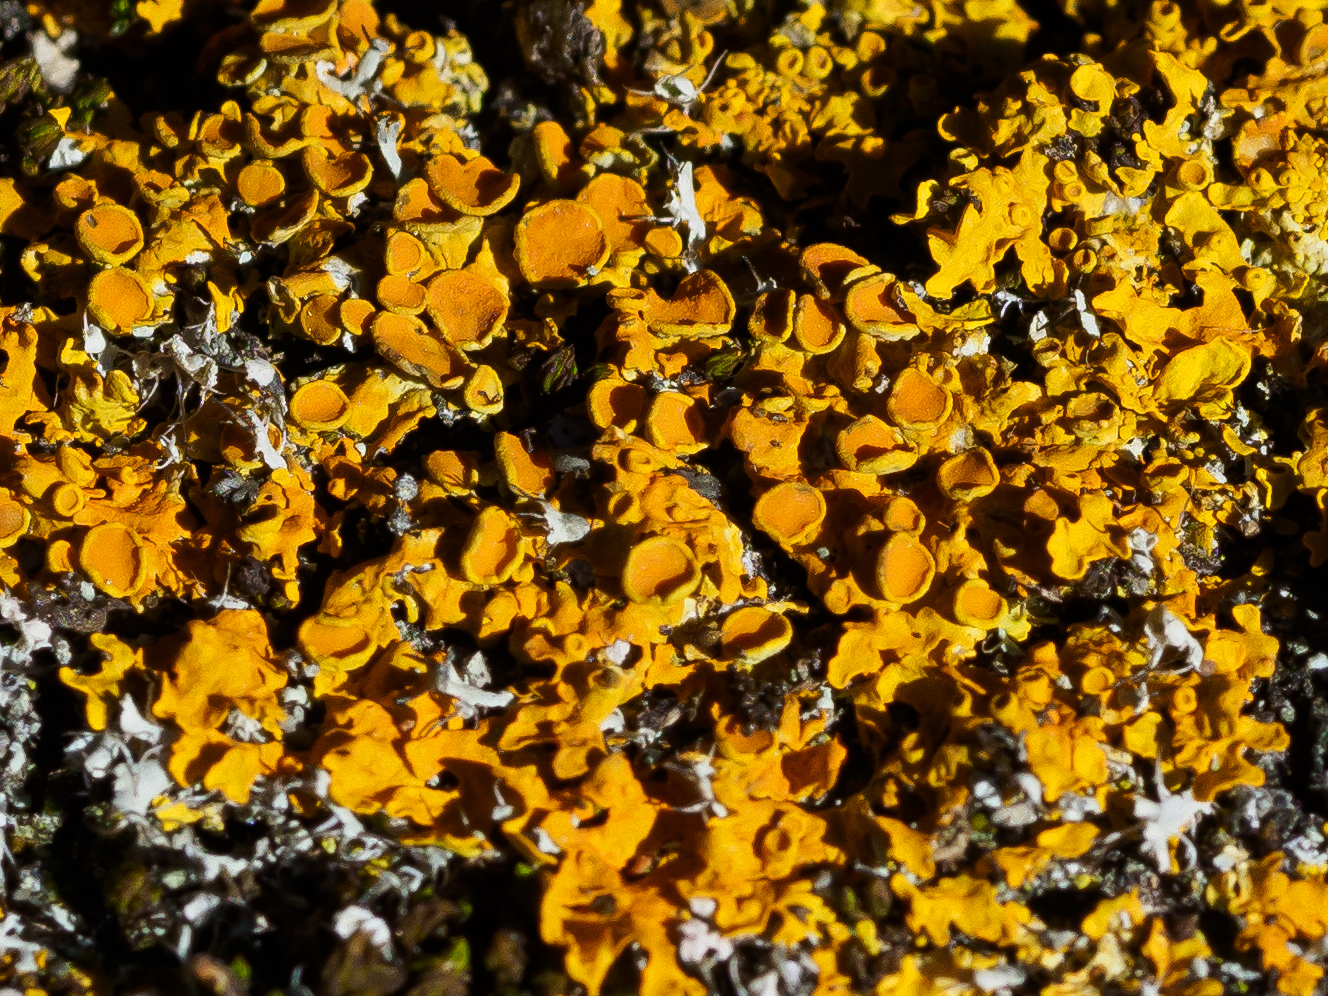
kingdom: Fungi
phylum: Ascomycota
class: Lecanoromycetes
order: Teloschistales
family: Teloschistaceae
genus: Xanthoria
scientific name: Xanthoria parietina
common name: Common orange lichen
